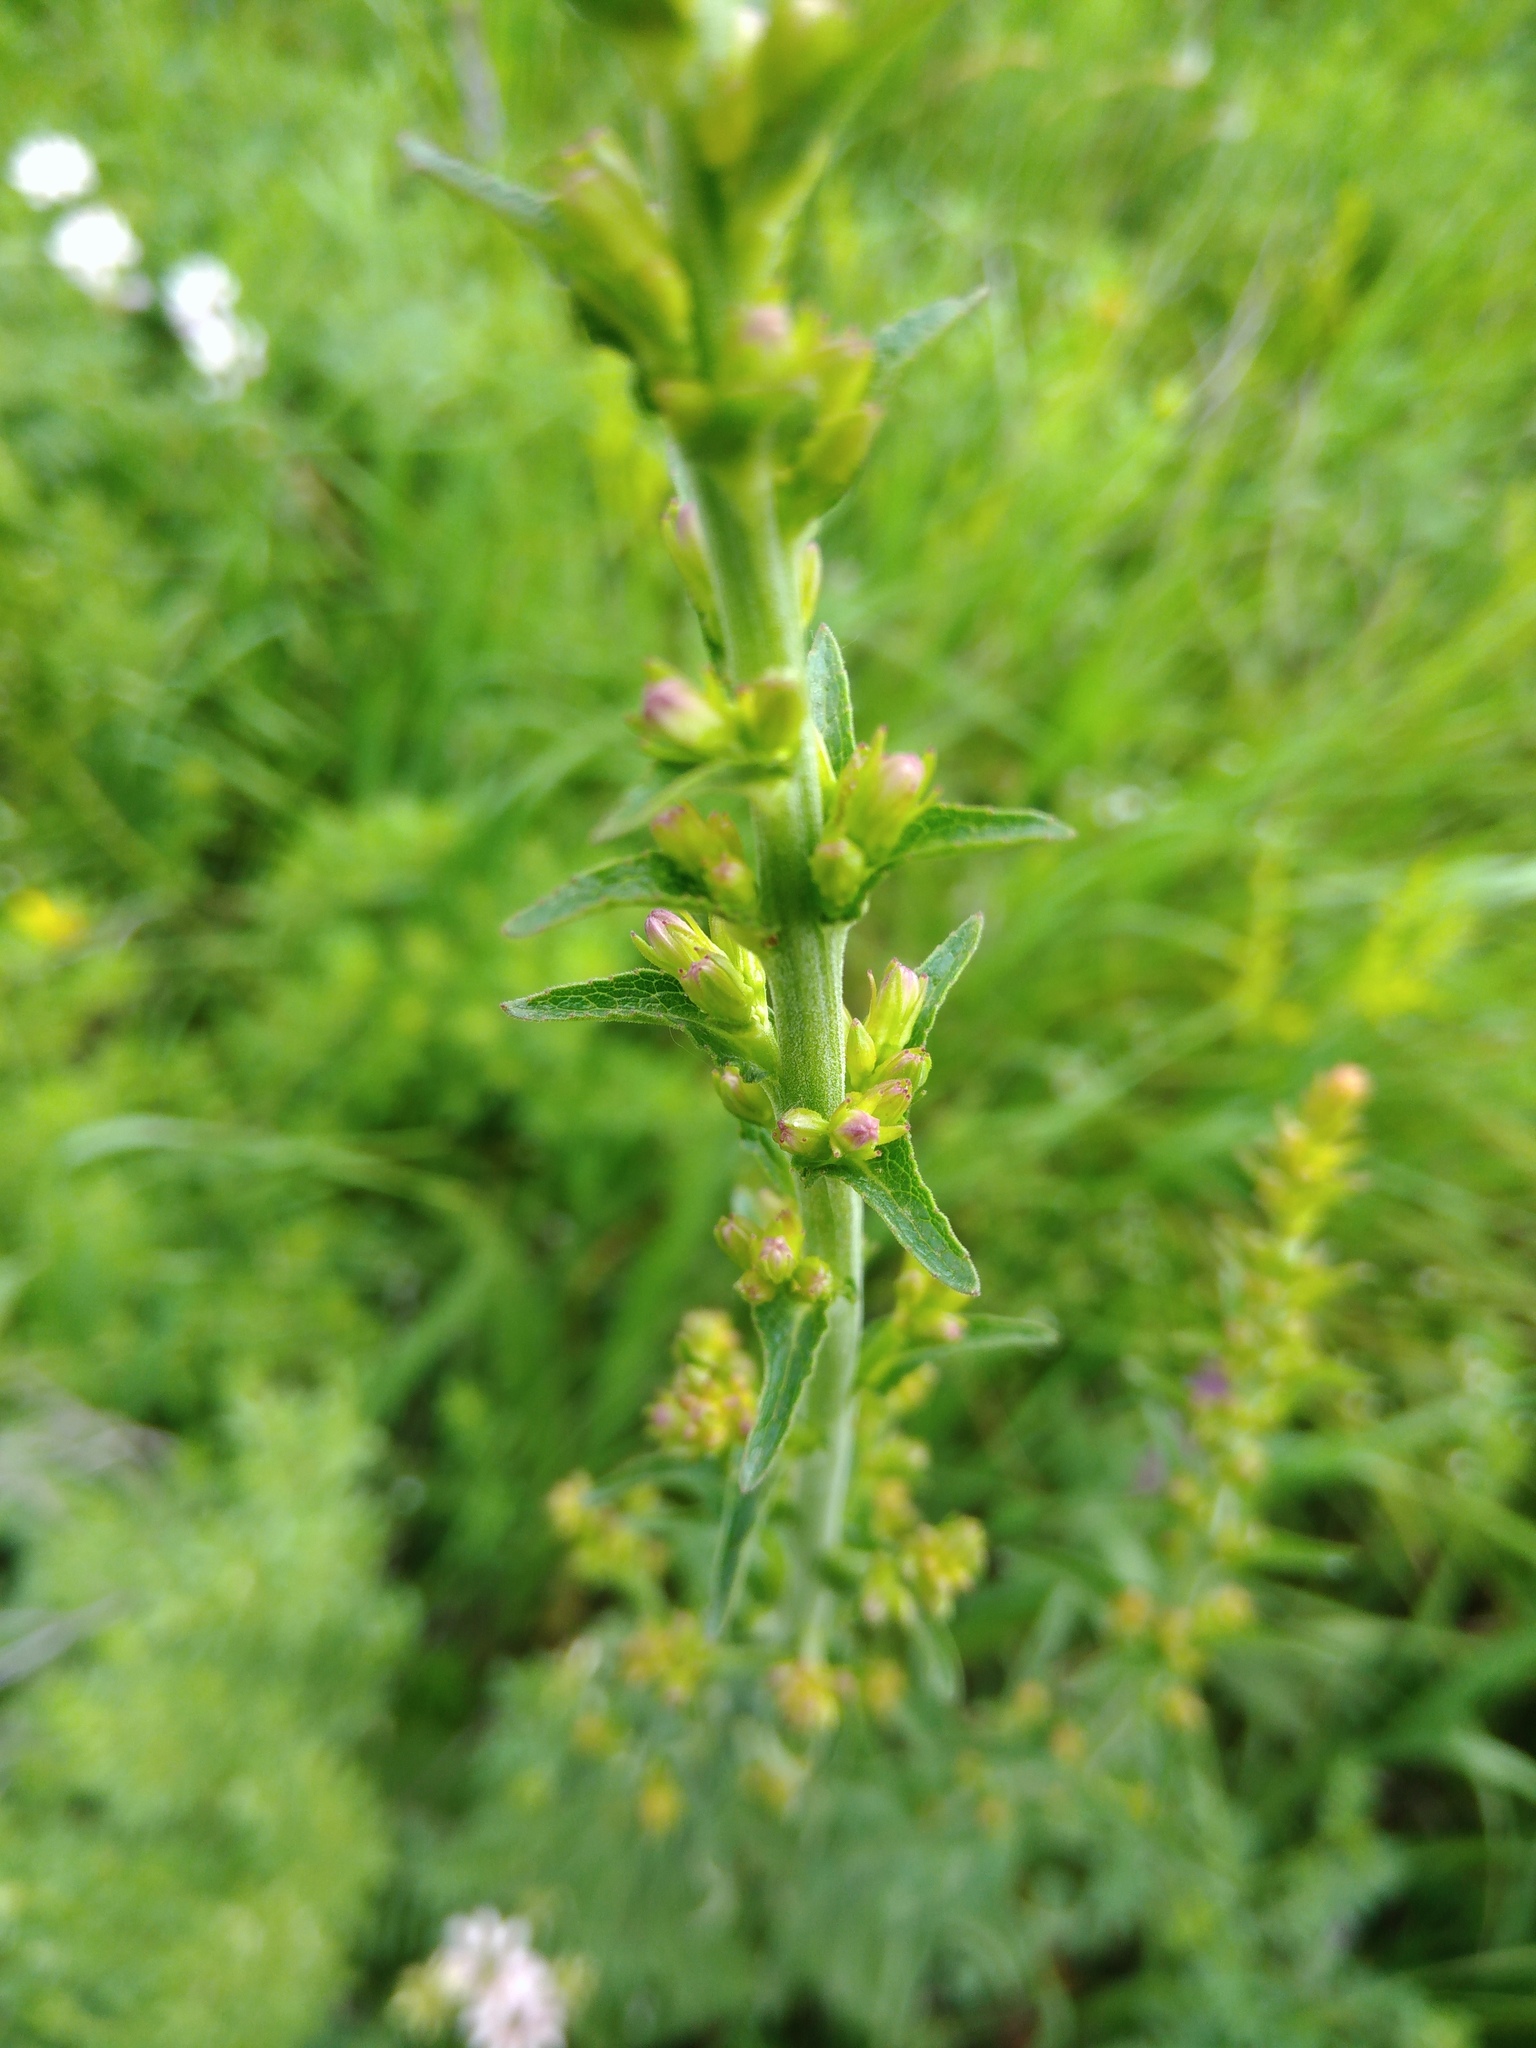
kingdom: Plantae
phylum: Tracheophyta
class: Magnoliopsida
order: Asterales
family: Campanulaceae
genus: Campanula
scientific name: Campanula glomerata
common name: Clustered bellflower
